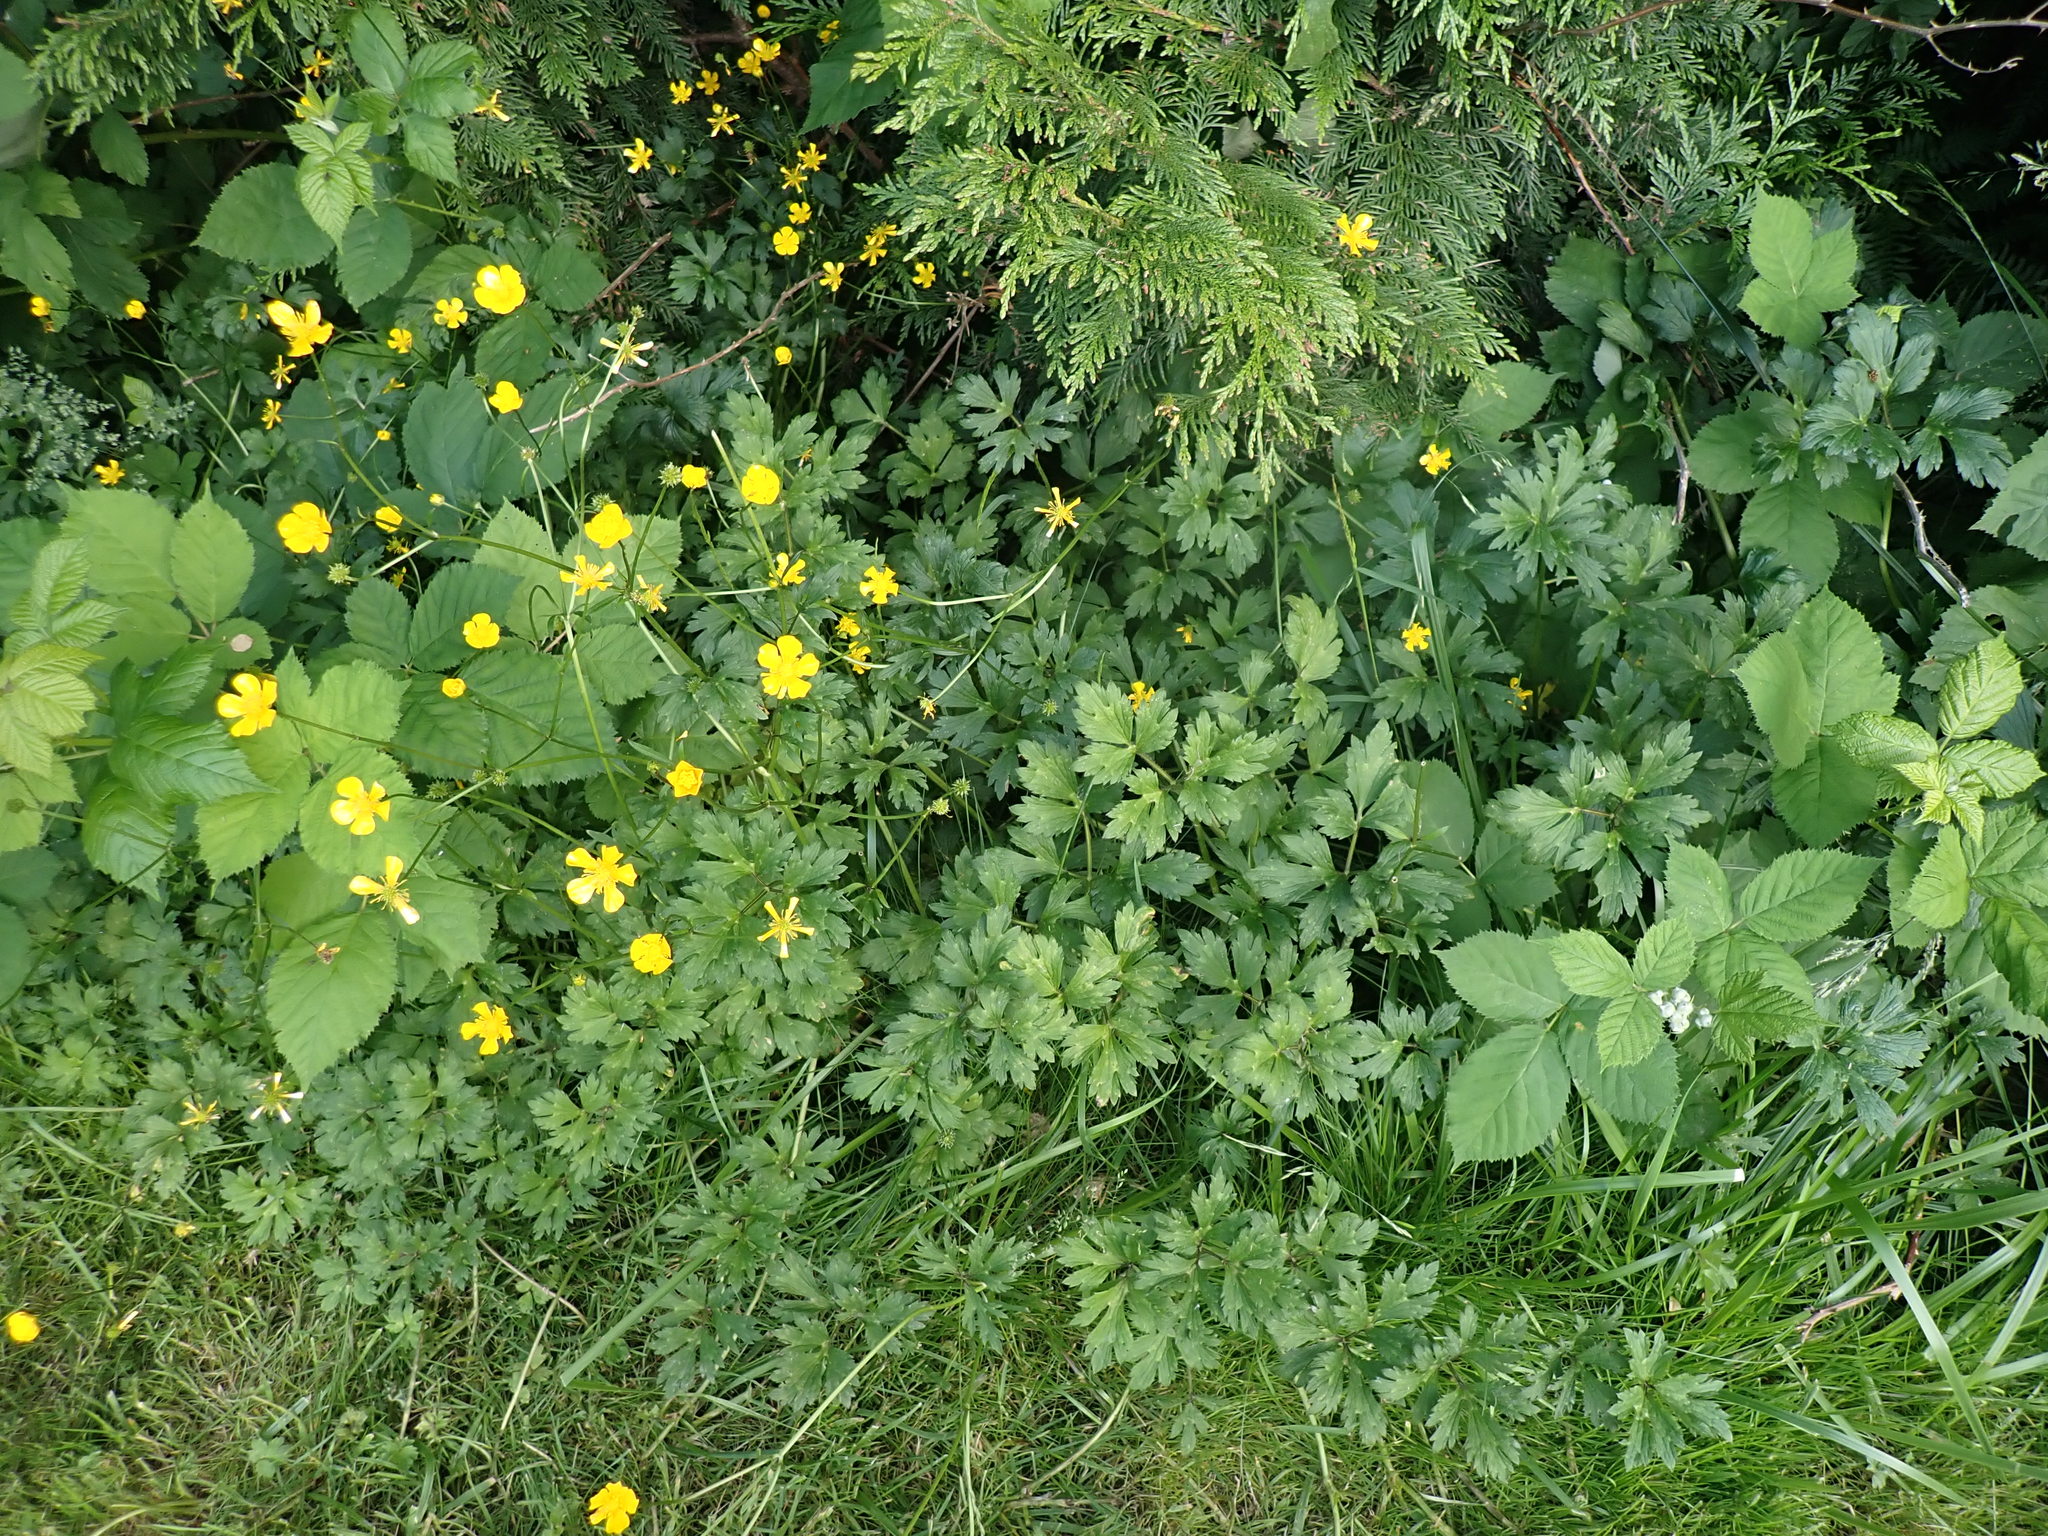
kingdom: Animalia
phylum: Arthropoda
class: Insecta
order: Diptera
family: Agromyzidae
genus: Phytomyza
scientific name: Phytomyza ranunculi
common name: Leaf-miner fly
